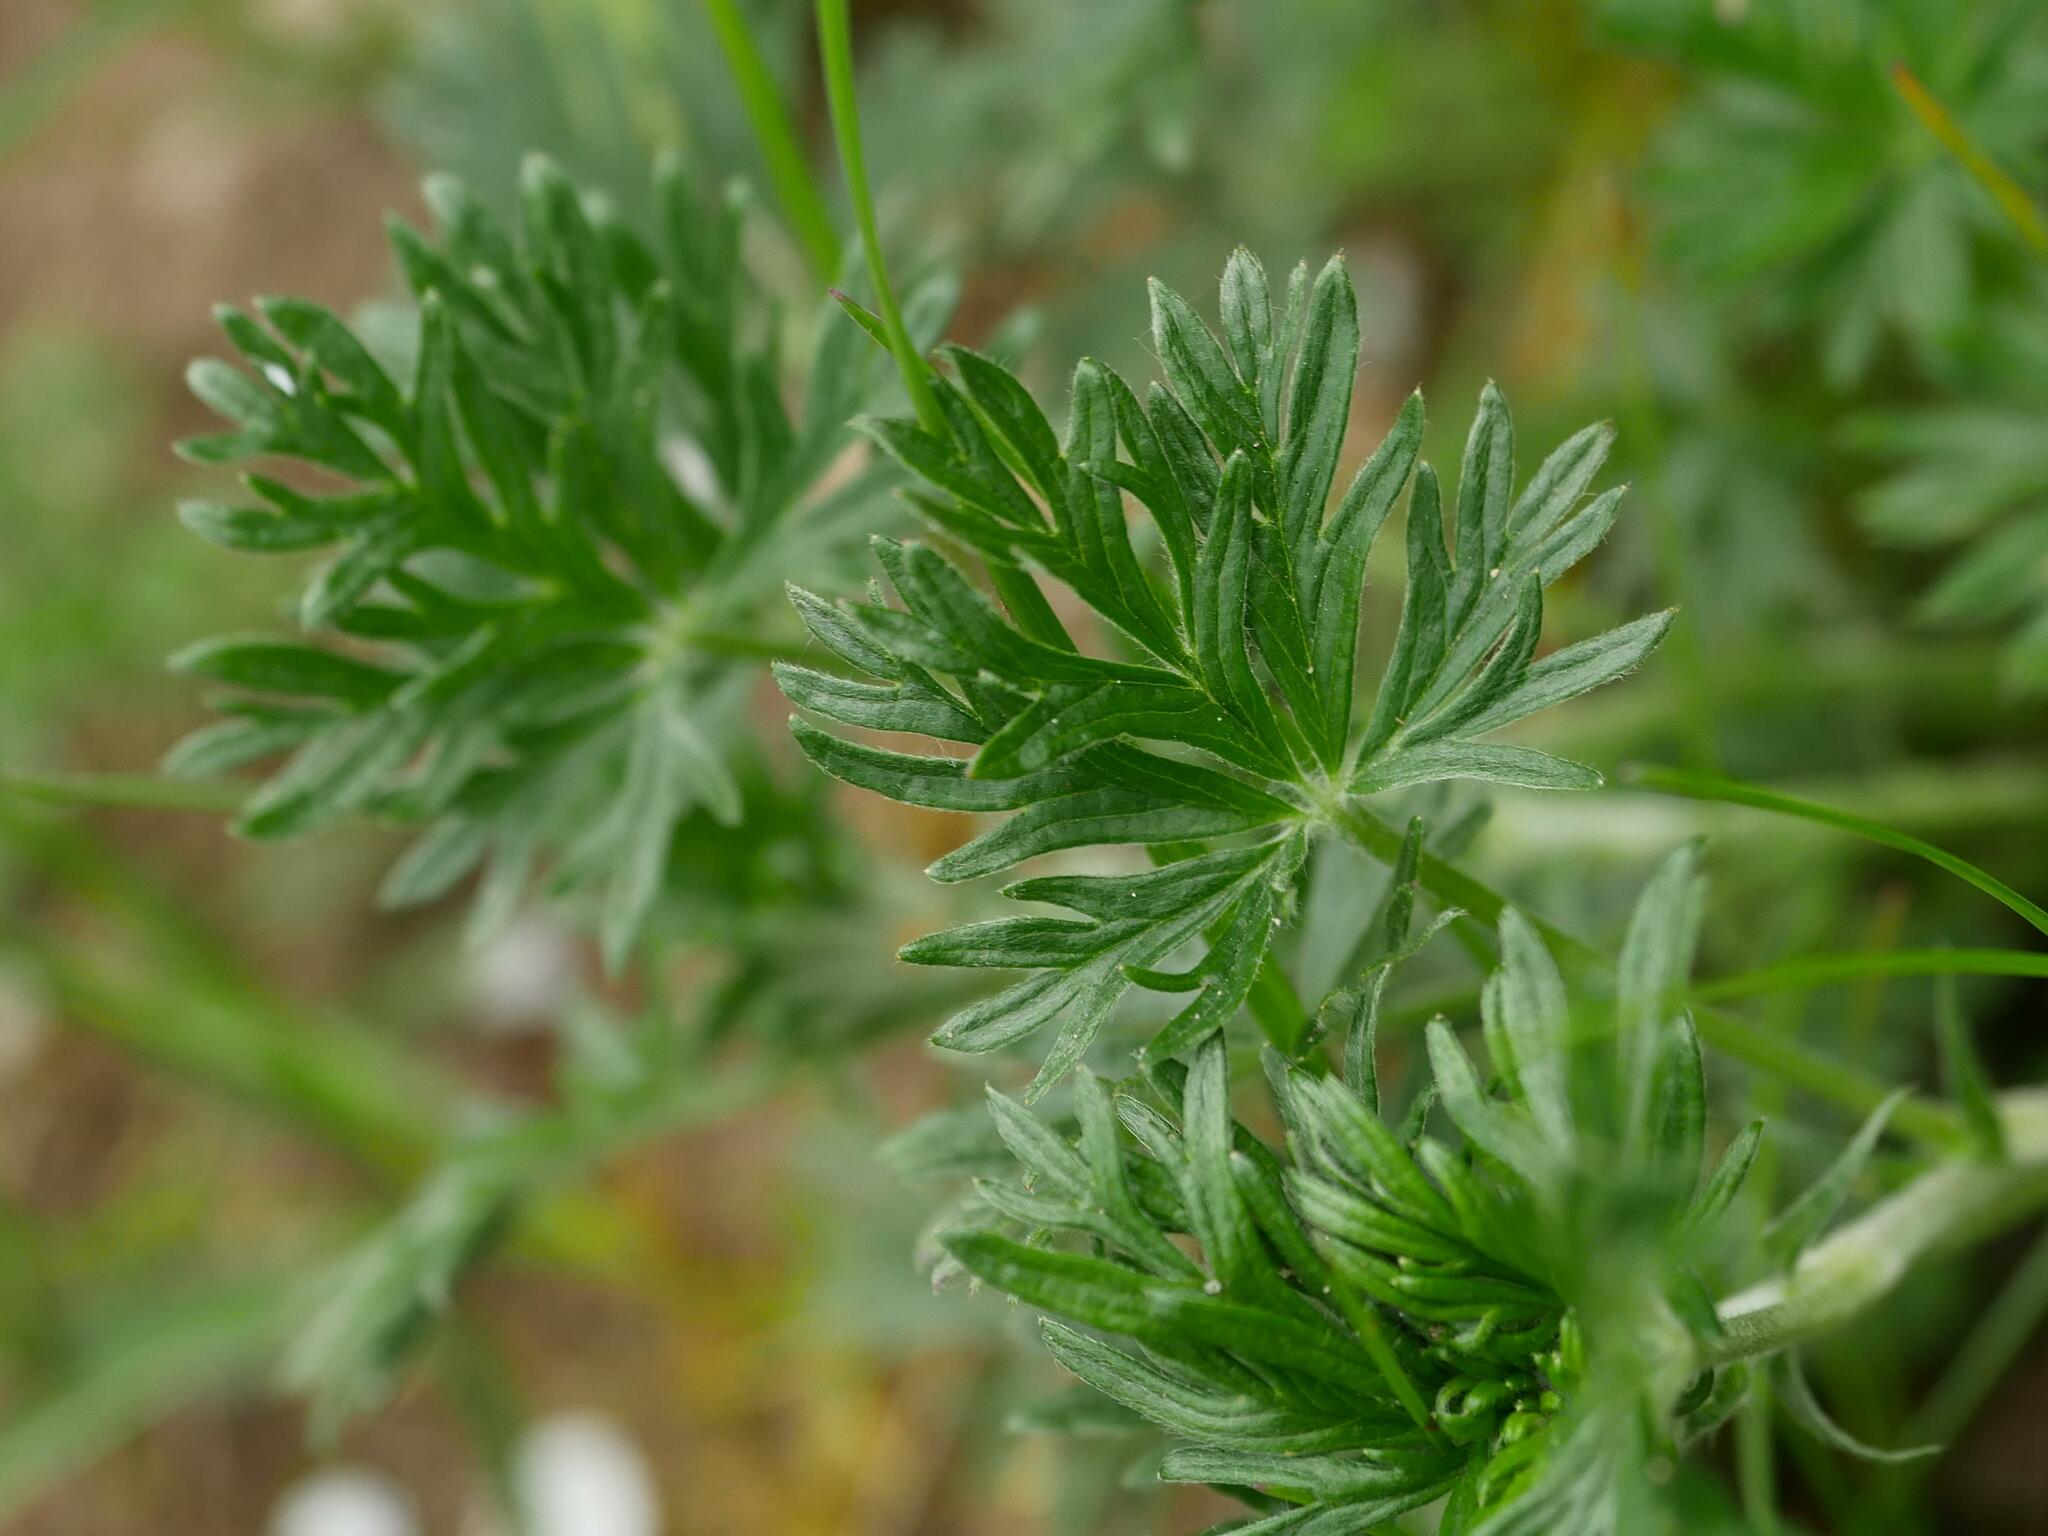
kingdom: Plantae
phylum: Tracheophyta
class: Magnoliopsida
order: Rosales
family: Rosaceae
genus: Potentilla
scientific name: Potentilla argentea
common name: Hoary cinquefoil
